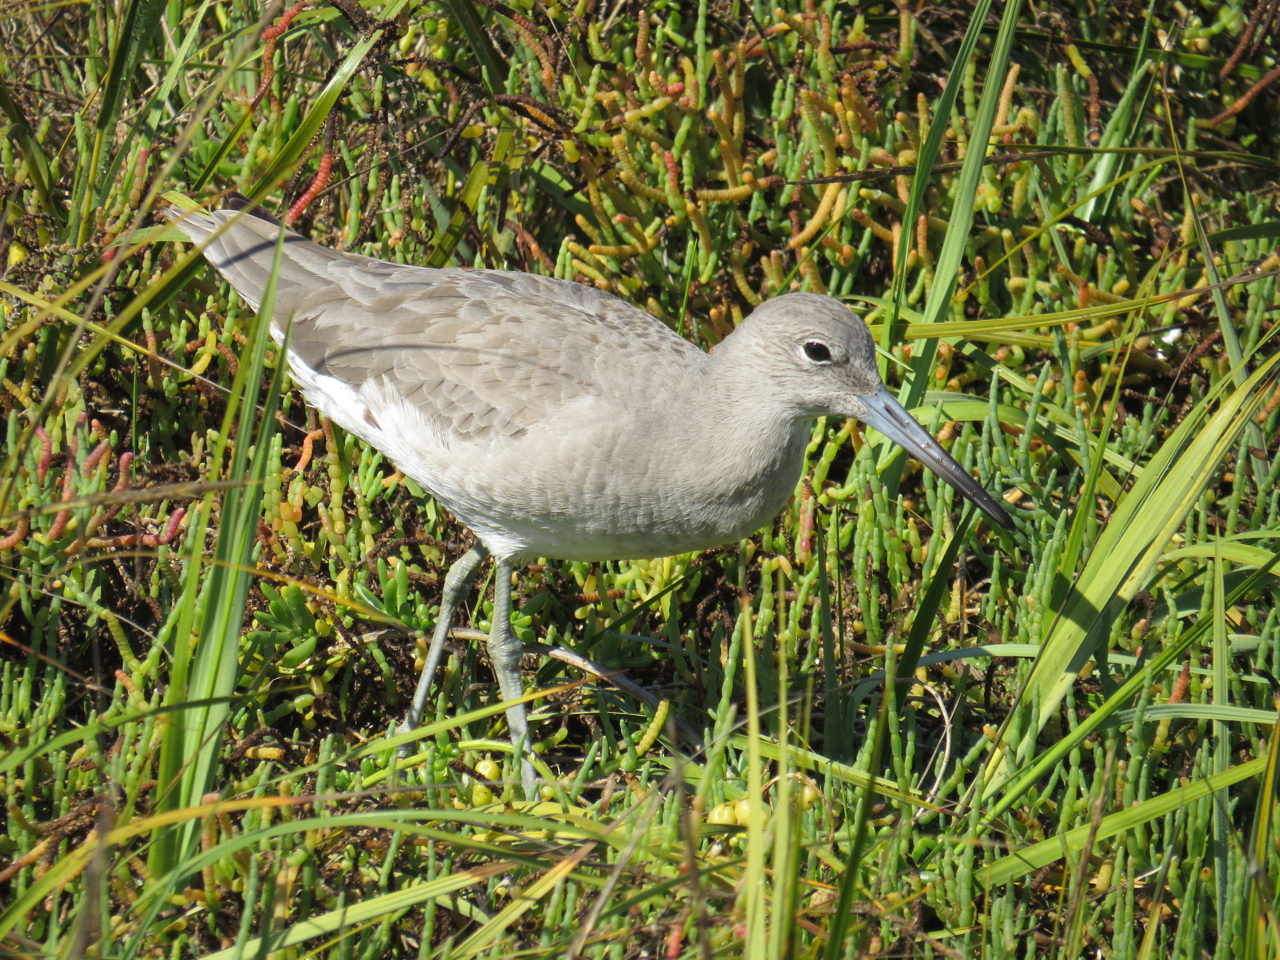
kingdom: Animalia
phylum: Chordata
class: Aves
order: Charadriiformes
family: Scolopacidae
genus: Tringa
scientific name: Tringa semipalmata
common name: Willet
